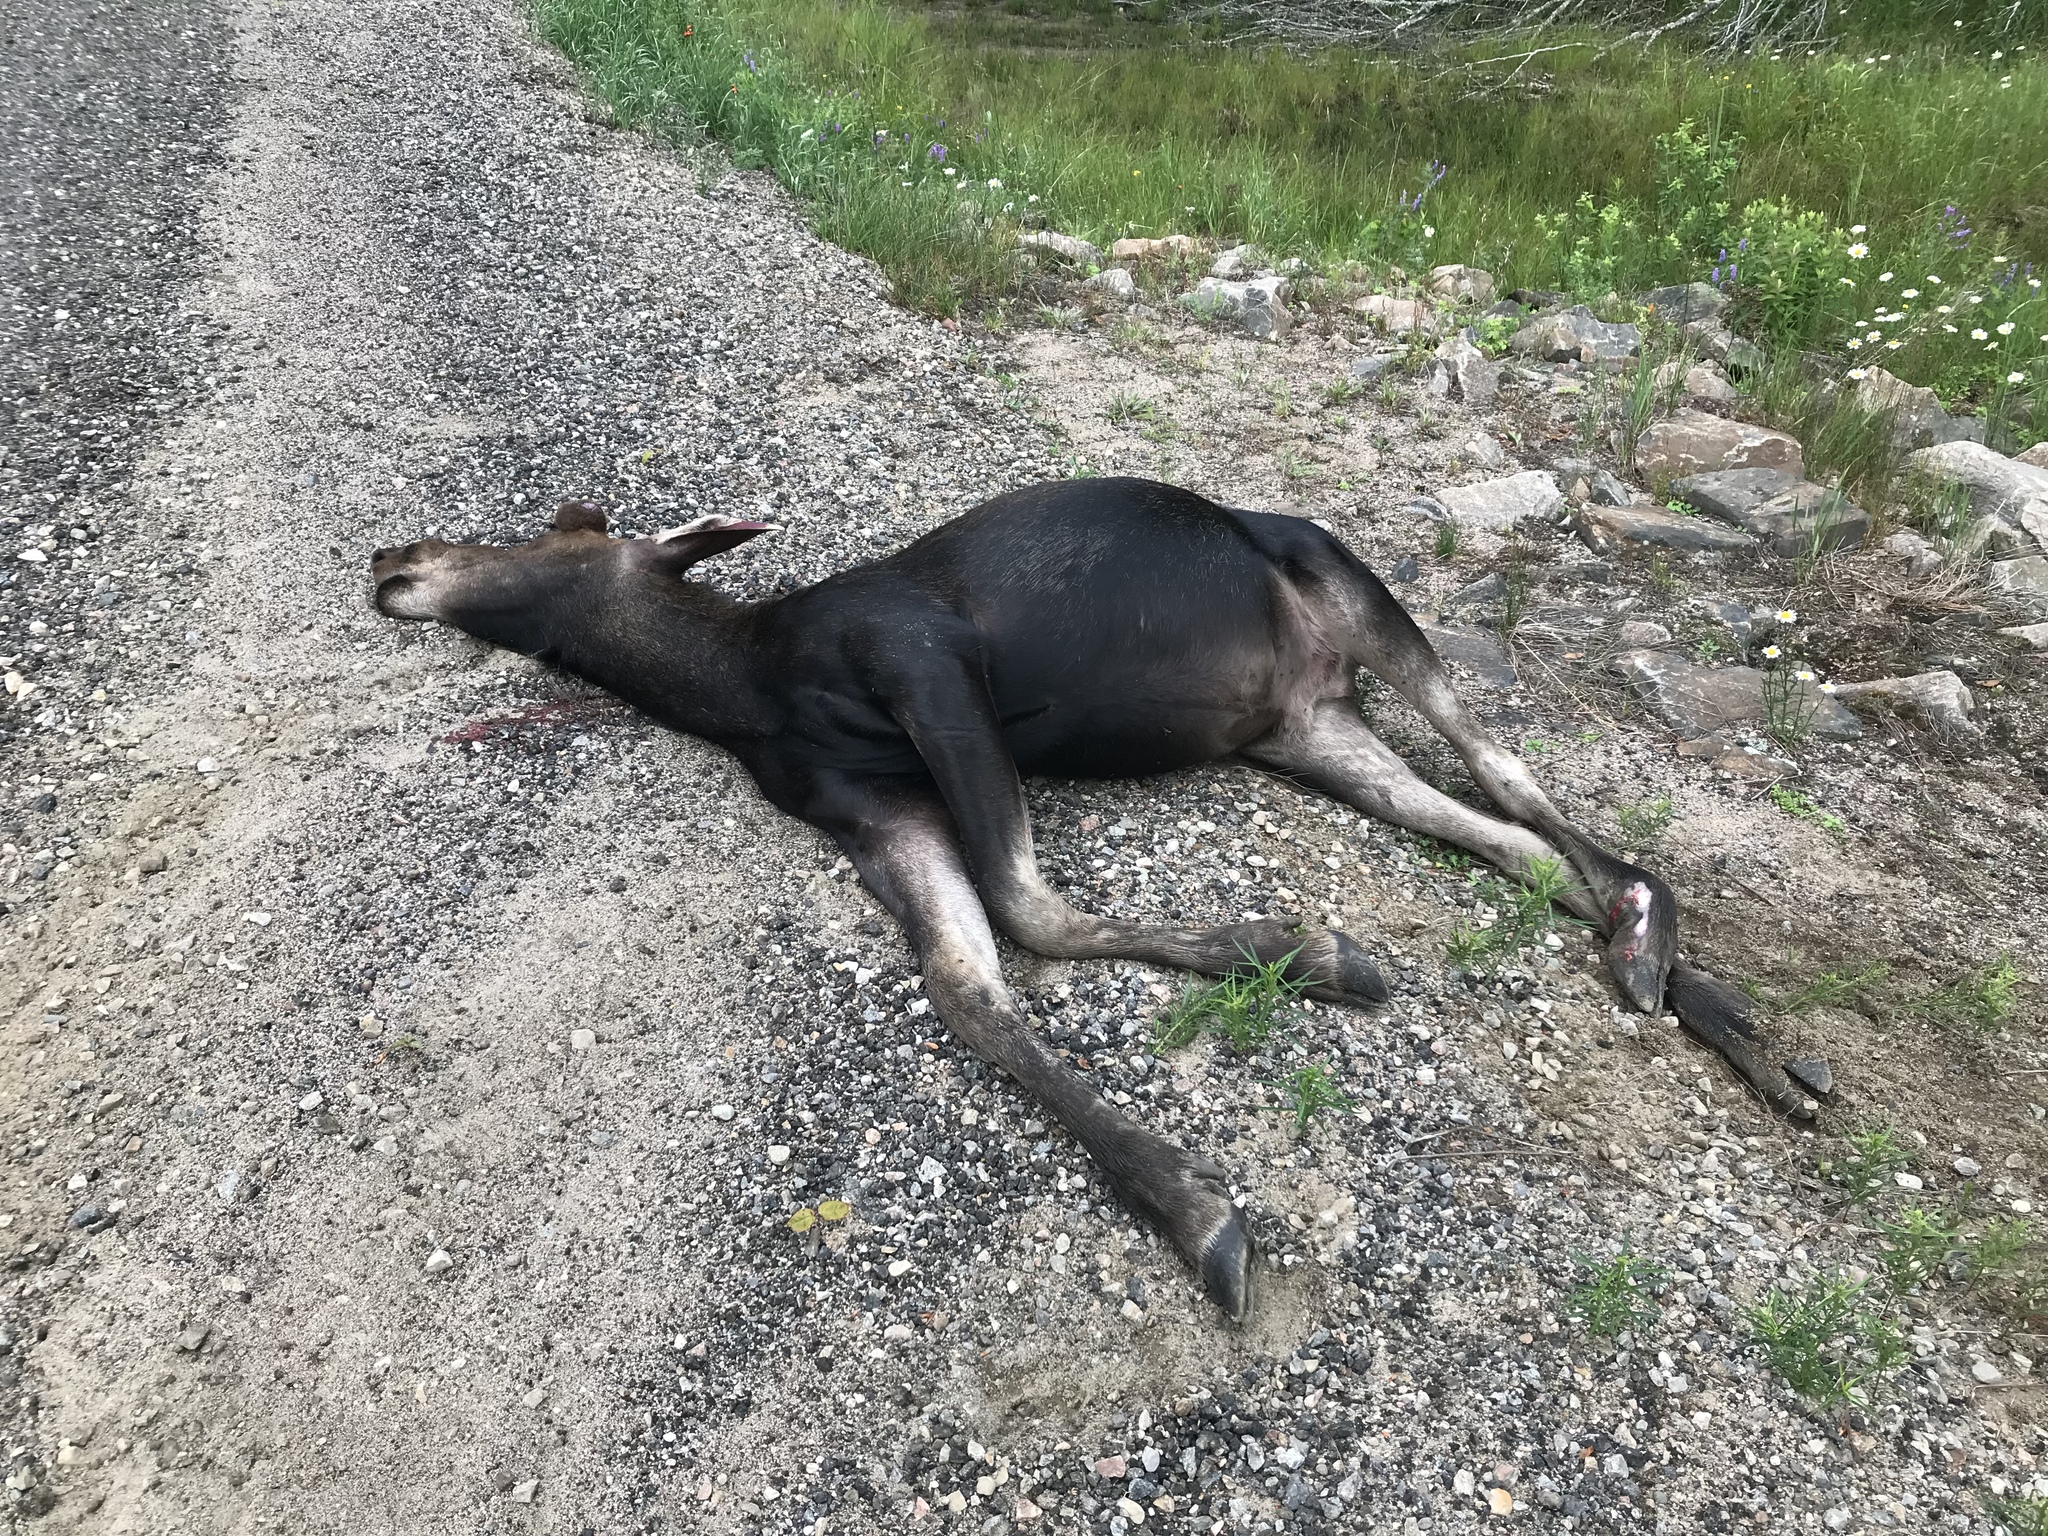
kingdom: Animalia
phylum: Chordata
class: Mammalia
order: Artiodactyla
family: Cervidae
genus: Alces
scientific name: Alces alces
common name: Moose
